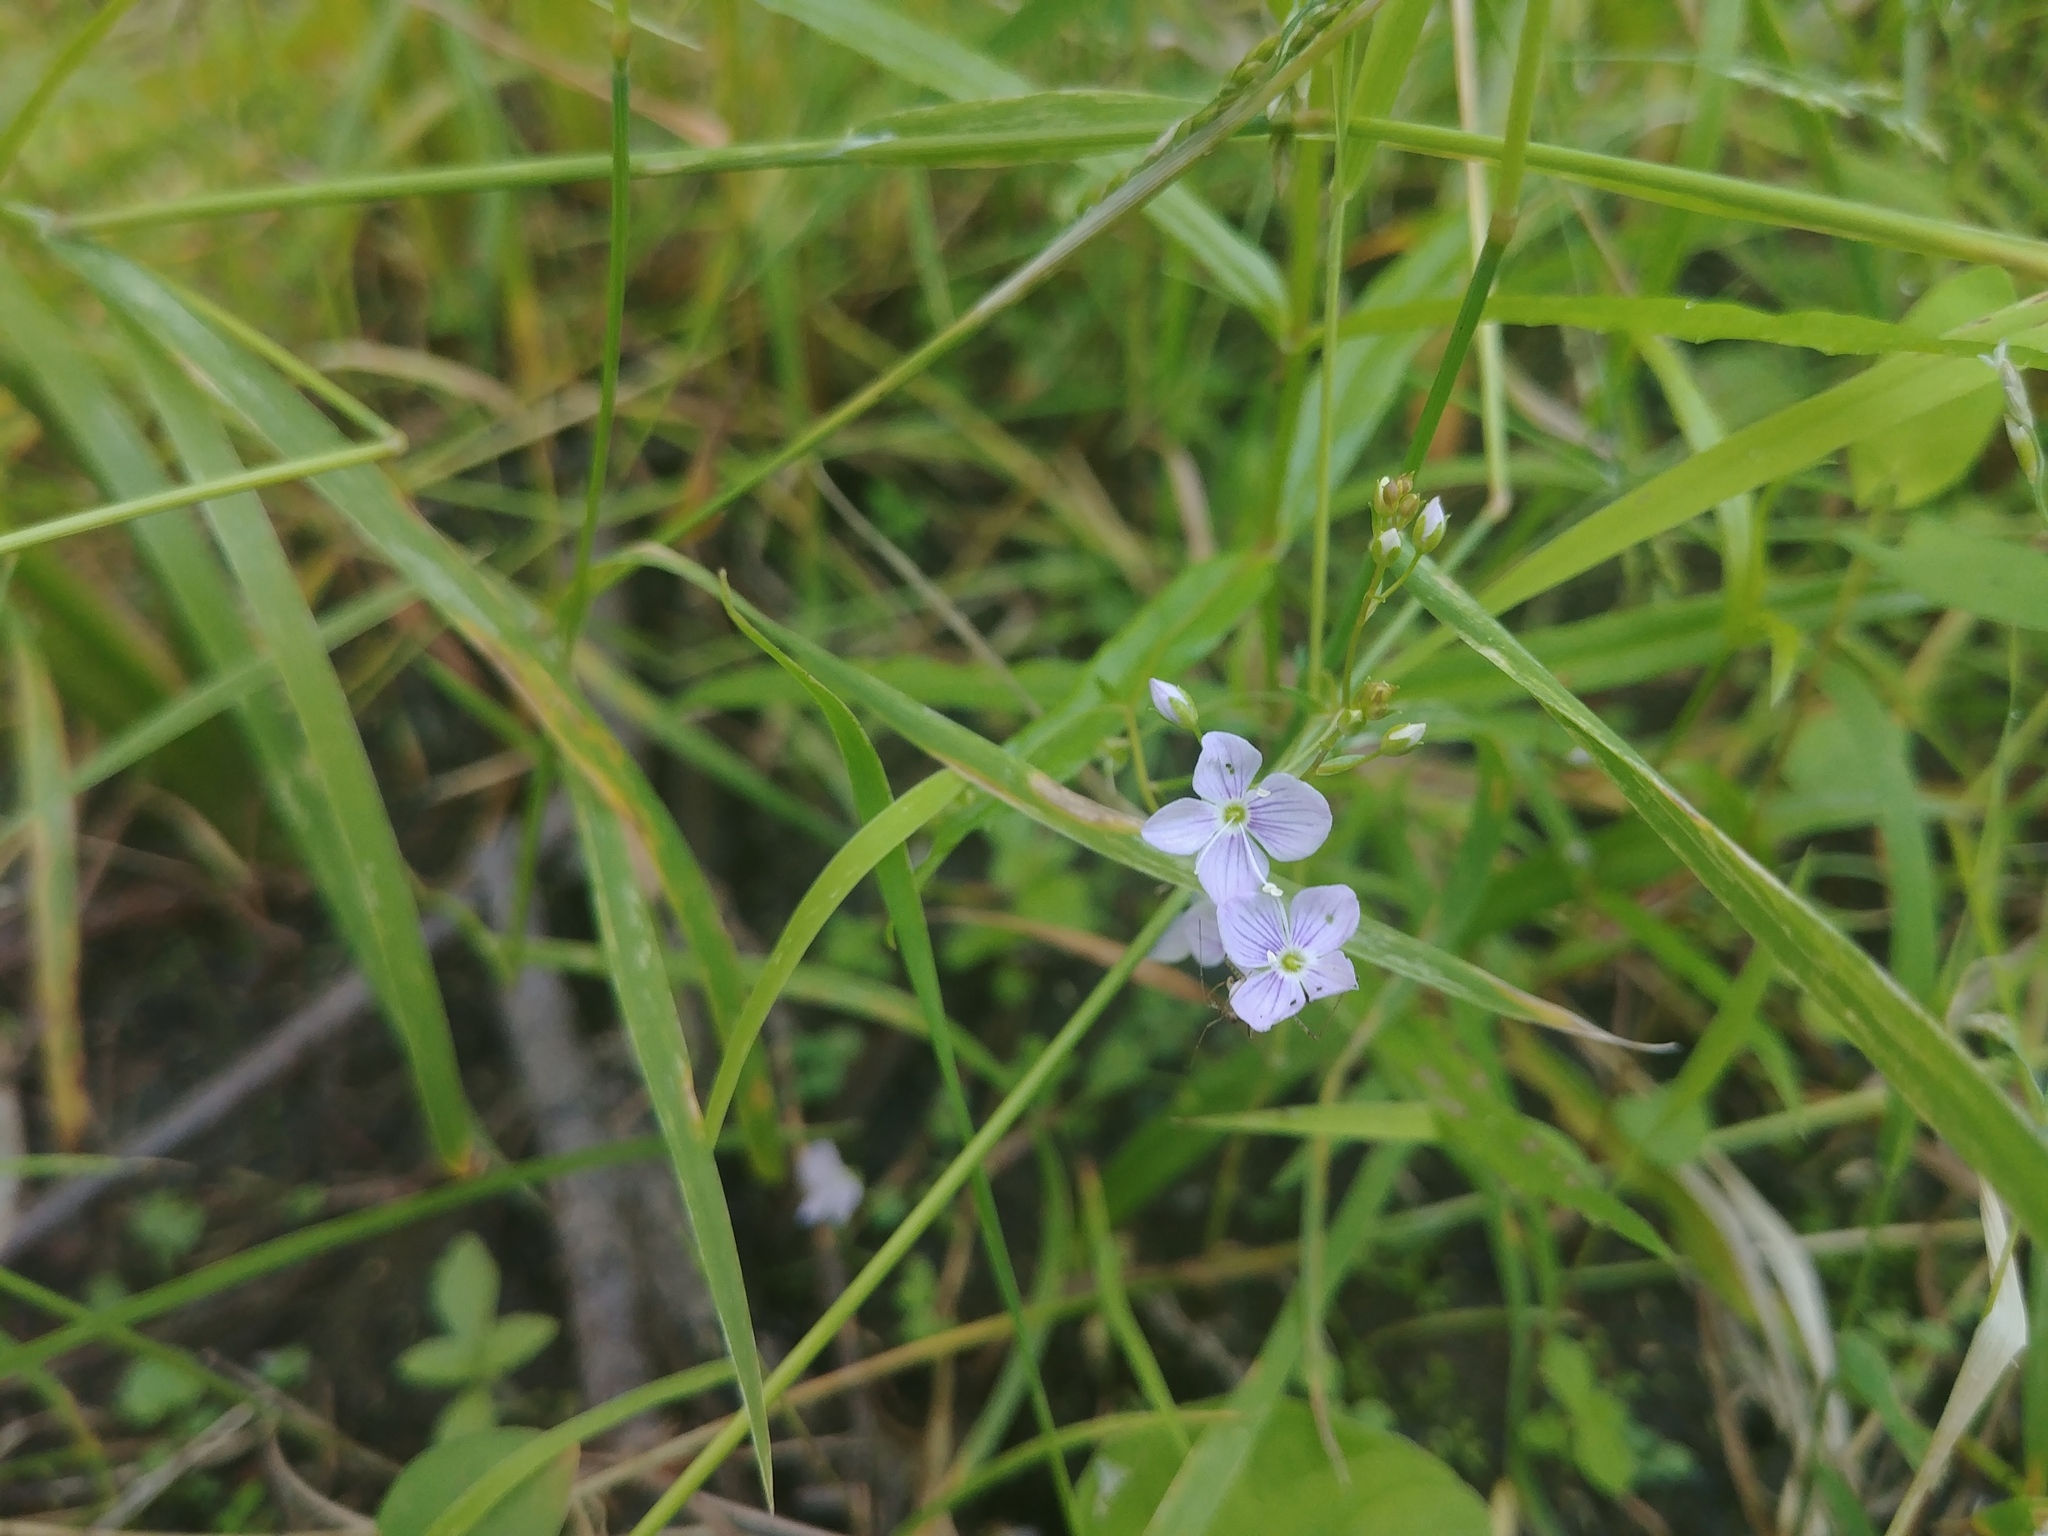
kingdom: Plantae
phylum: Tracheophyta
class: Magnoliopsida
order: Lamiales
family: Plantaginaceae
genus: Veronica
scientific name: Veronica scutellata
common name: Marsh speedwell
